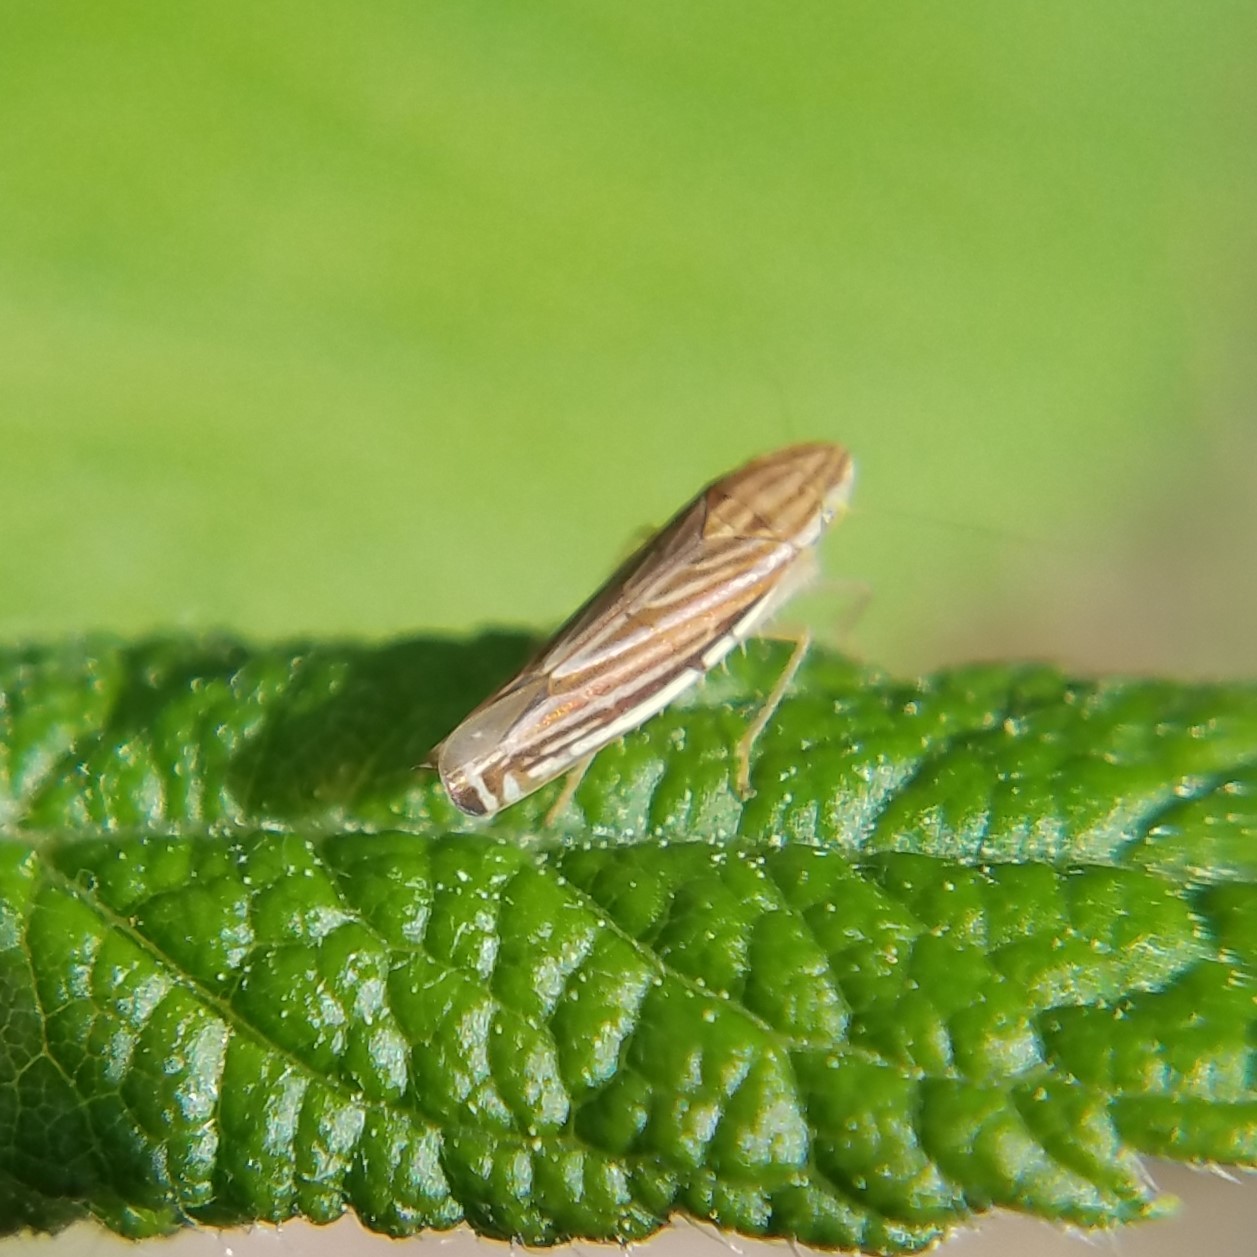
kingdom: Animalia
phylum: Arthropoda
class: Insecta
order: Hemiptera
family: Cicadellidae
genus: Sibovia
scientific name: Sibovia occatoria
